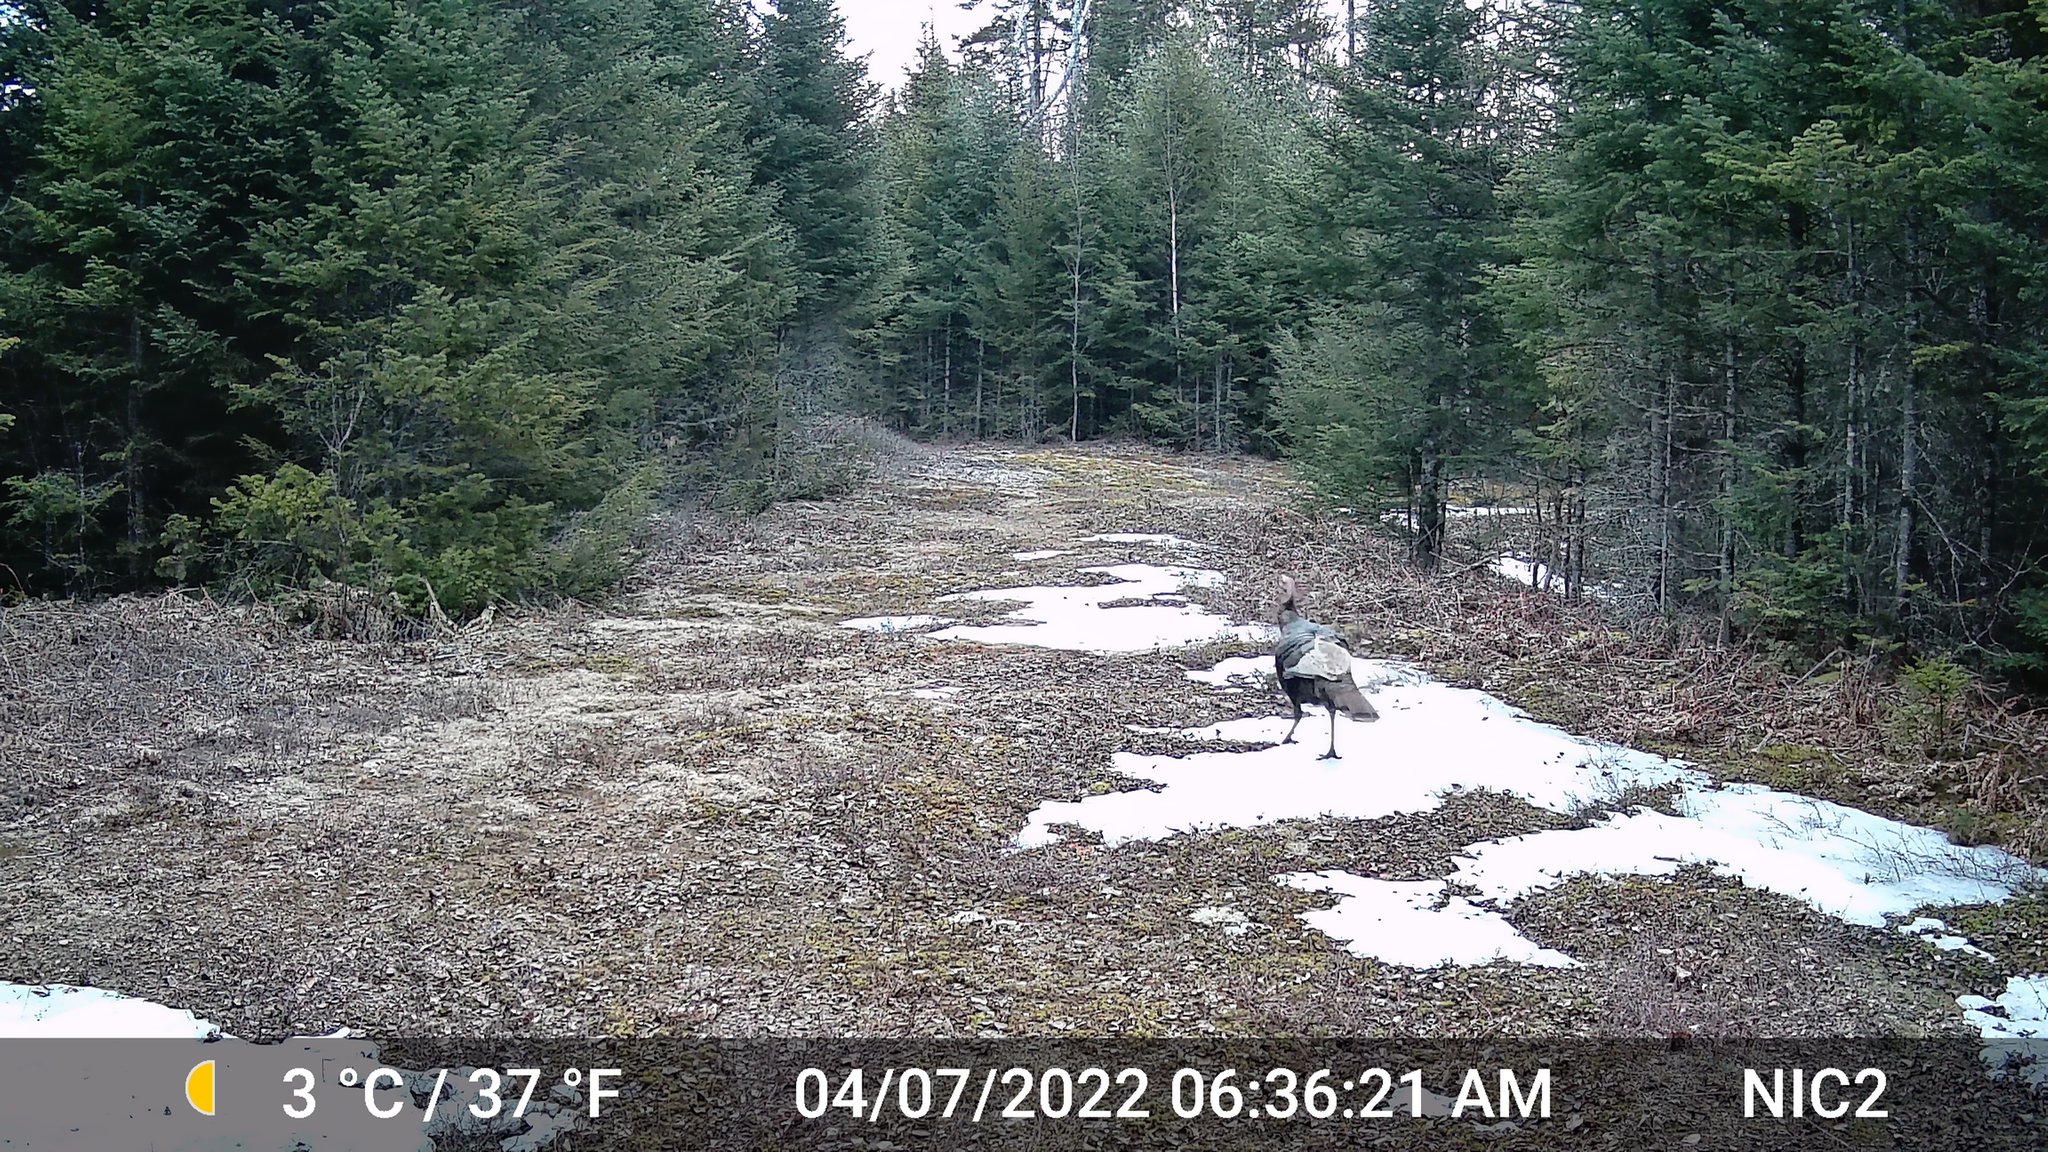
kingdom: Animalia
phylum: Chordata
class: Aves
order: Galliformes
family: Phasianidae
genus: Meleagris
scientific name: Meleagris gallopavo
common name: Wild turkey
